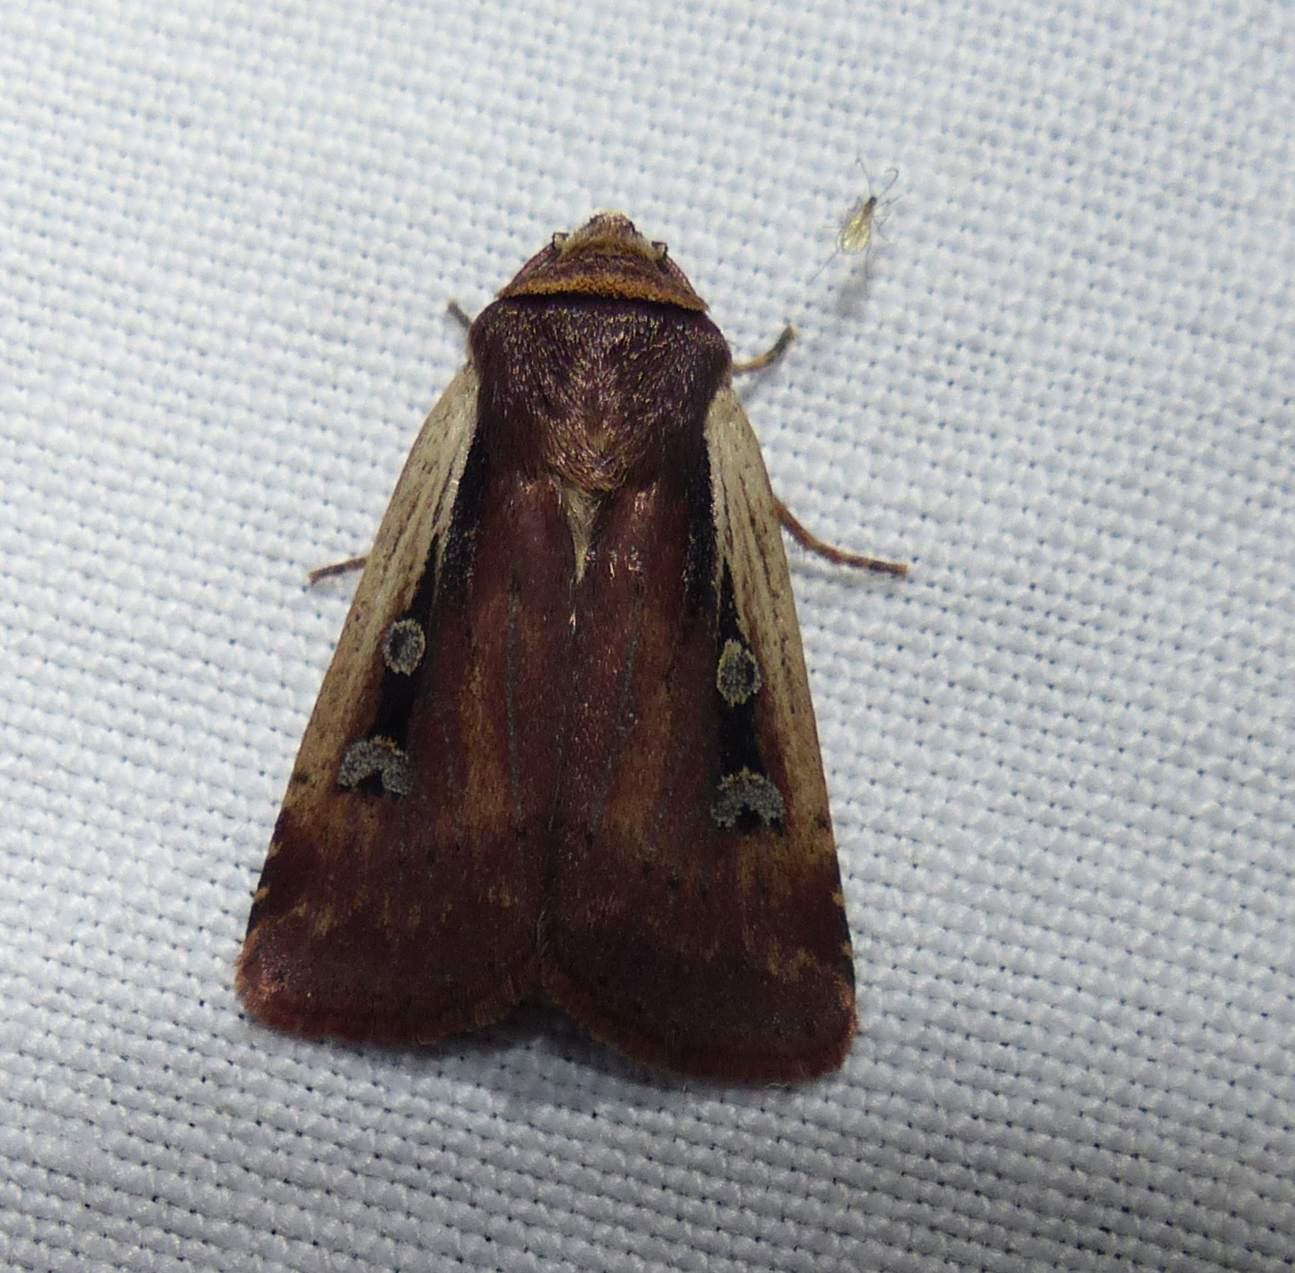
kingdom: Animalia
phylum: Arthropoda
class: Insecta
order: Lepidoptera
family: Noctuidae
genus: Ochropleura
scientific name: Ochropleura implecta
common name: Flame-shouldered dart
